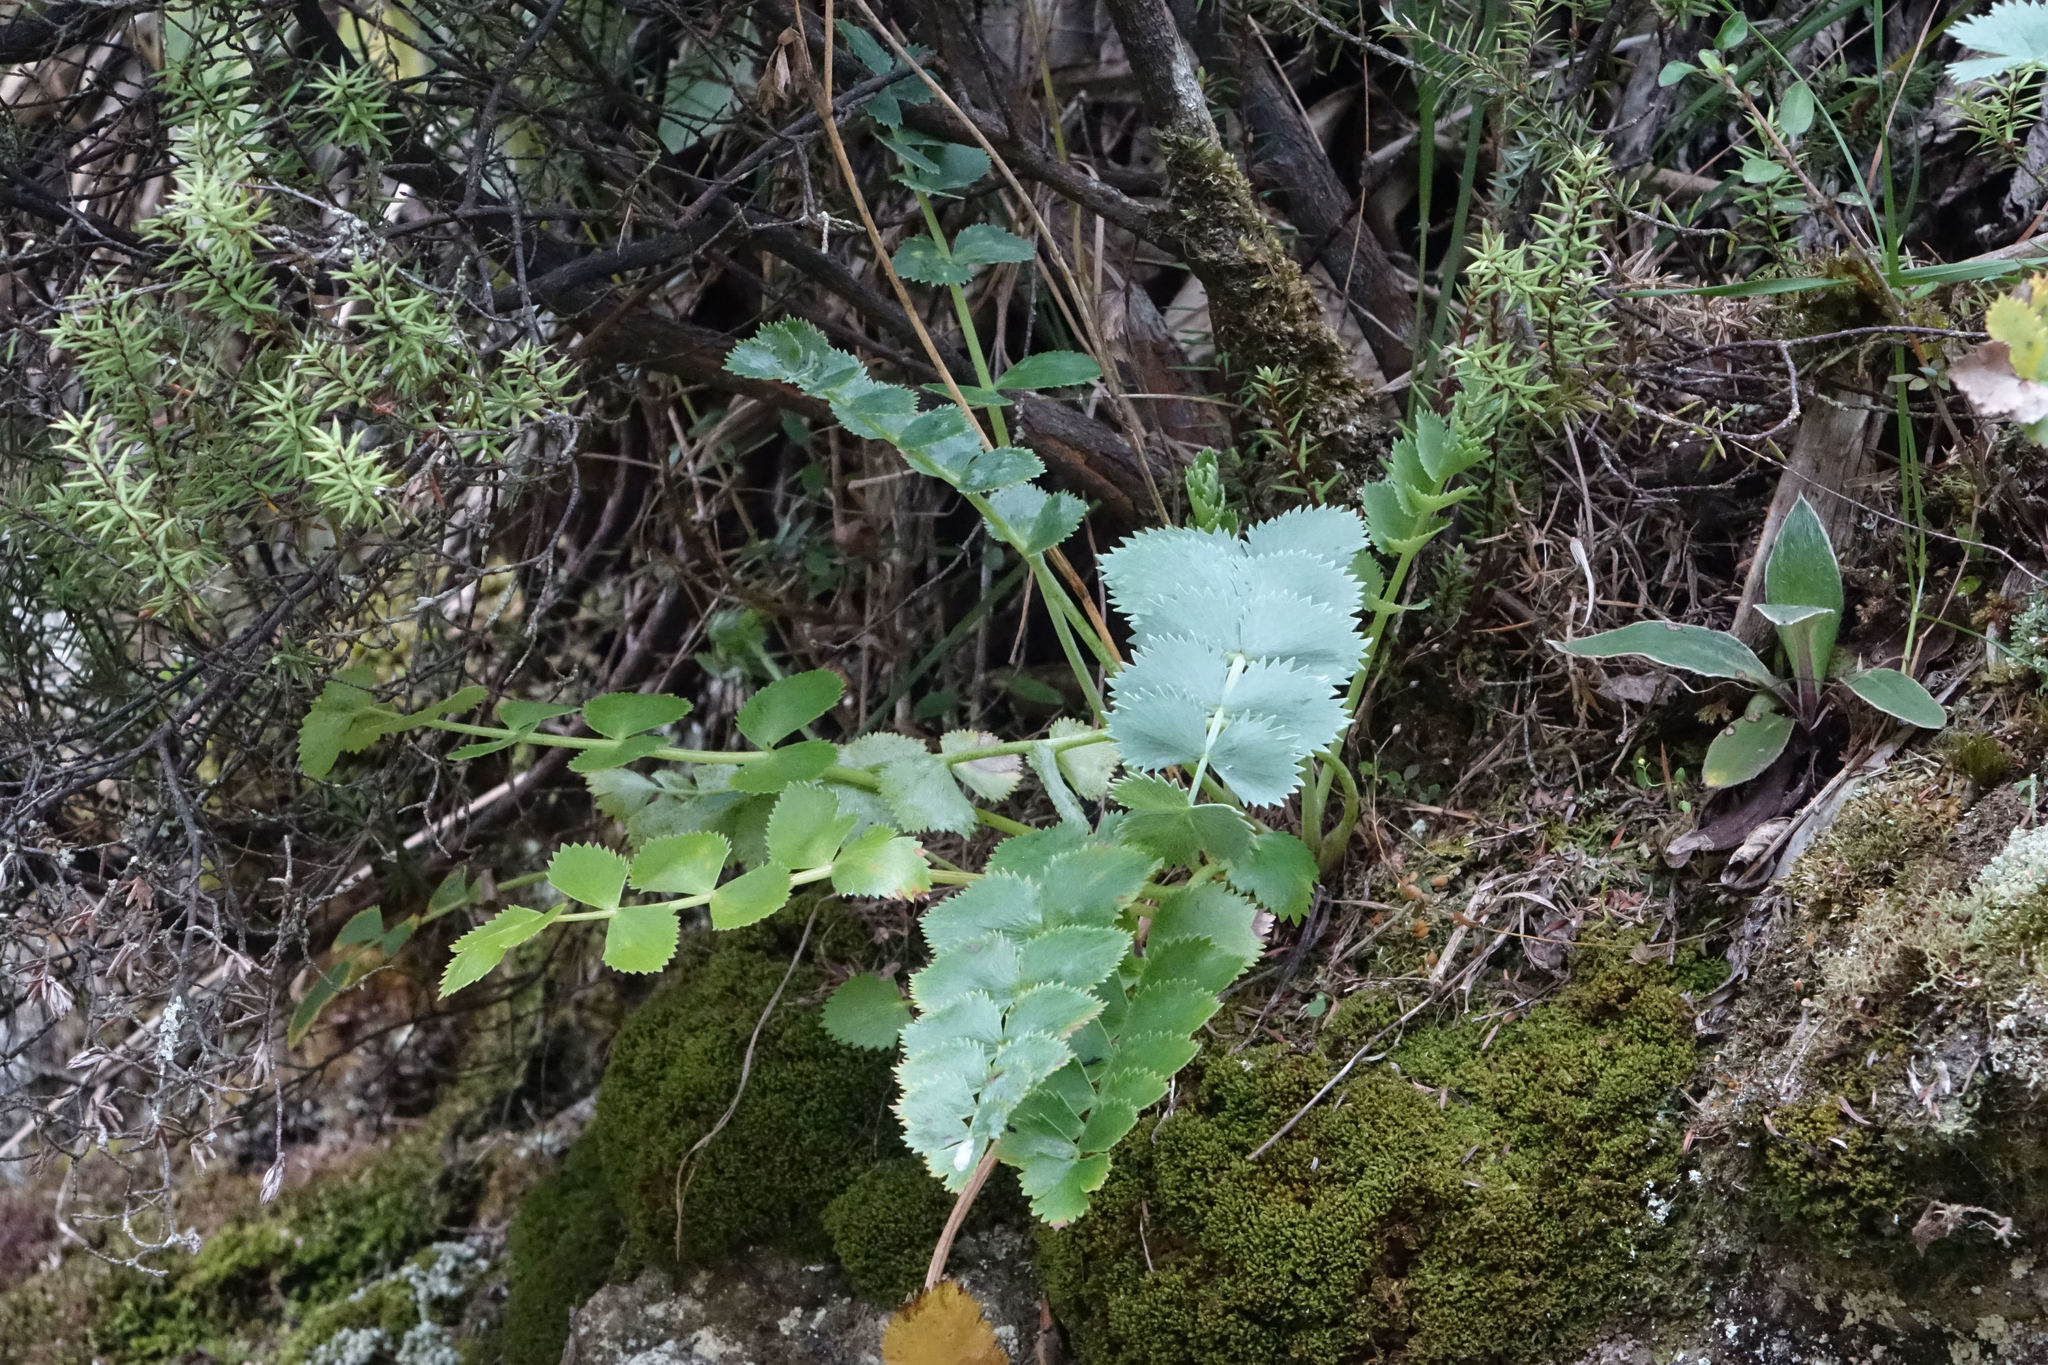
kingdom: Plantae
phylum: Tracheophyta
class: Magnoliopsida
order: Apiales
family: Apiaceae
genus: Gingidia
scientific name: Gingidia grisea
